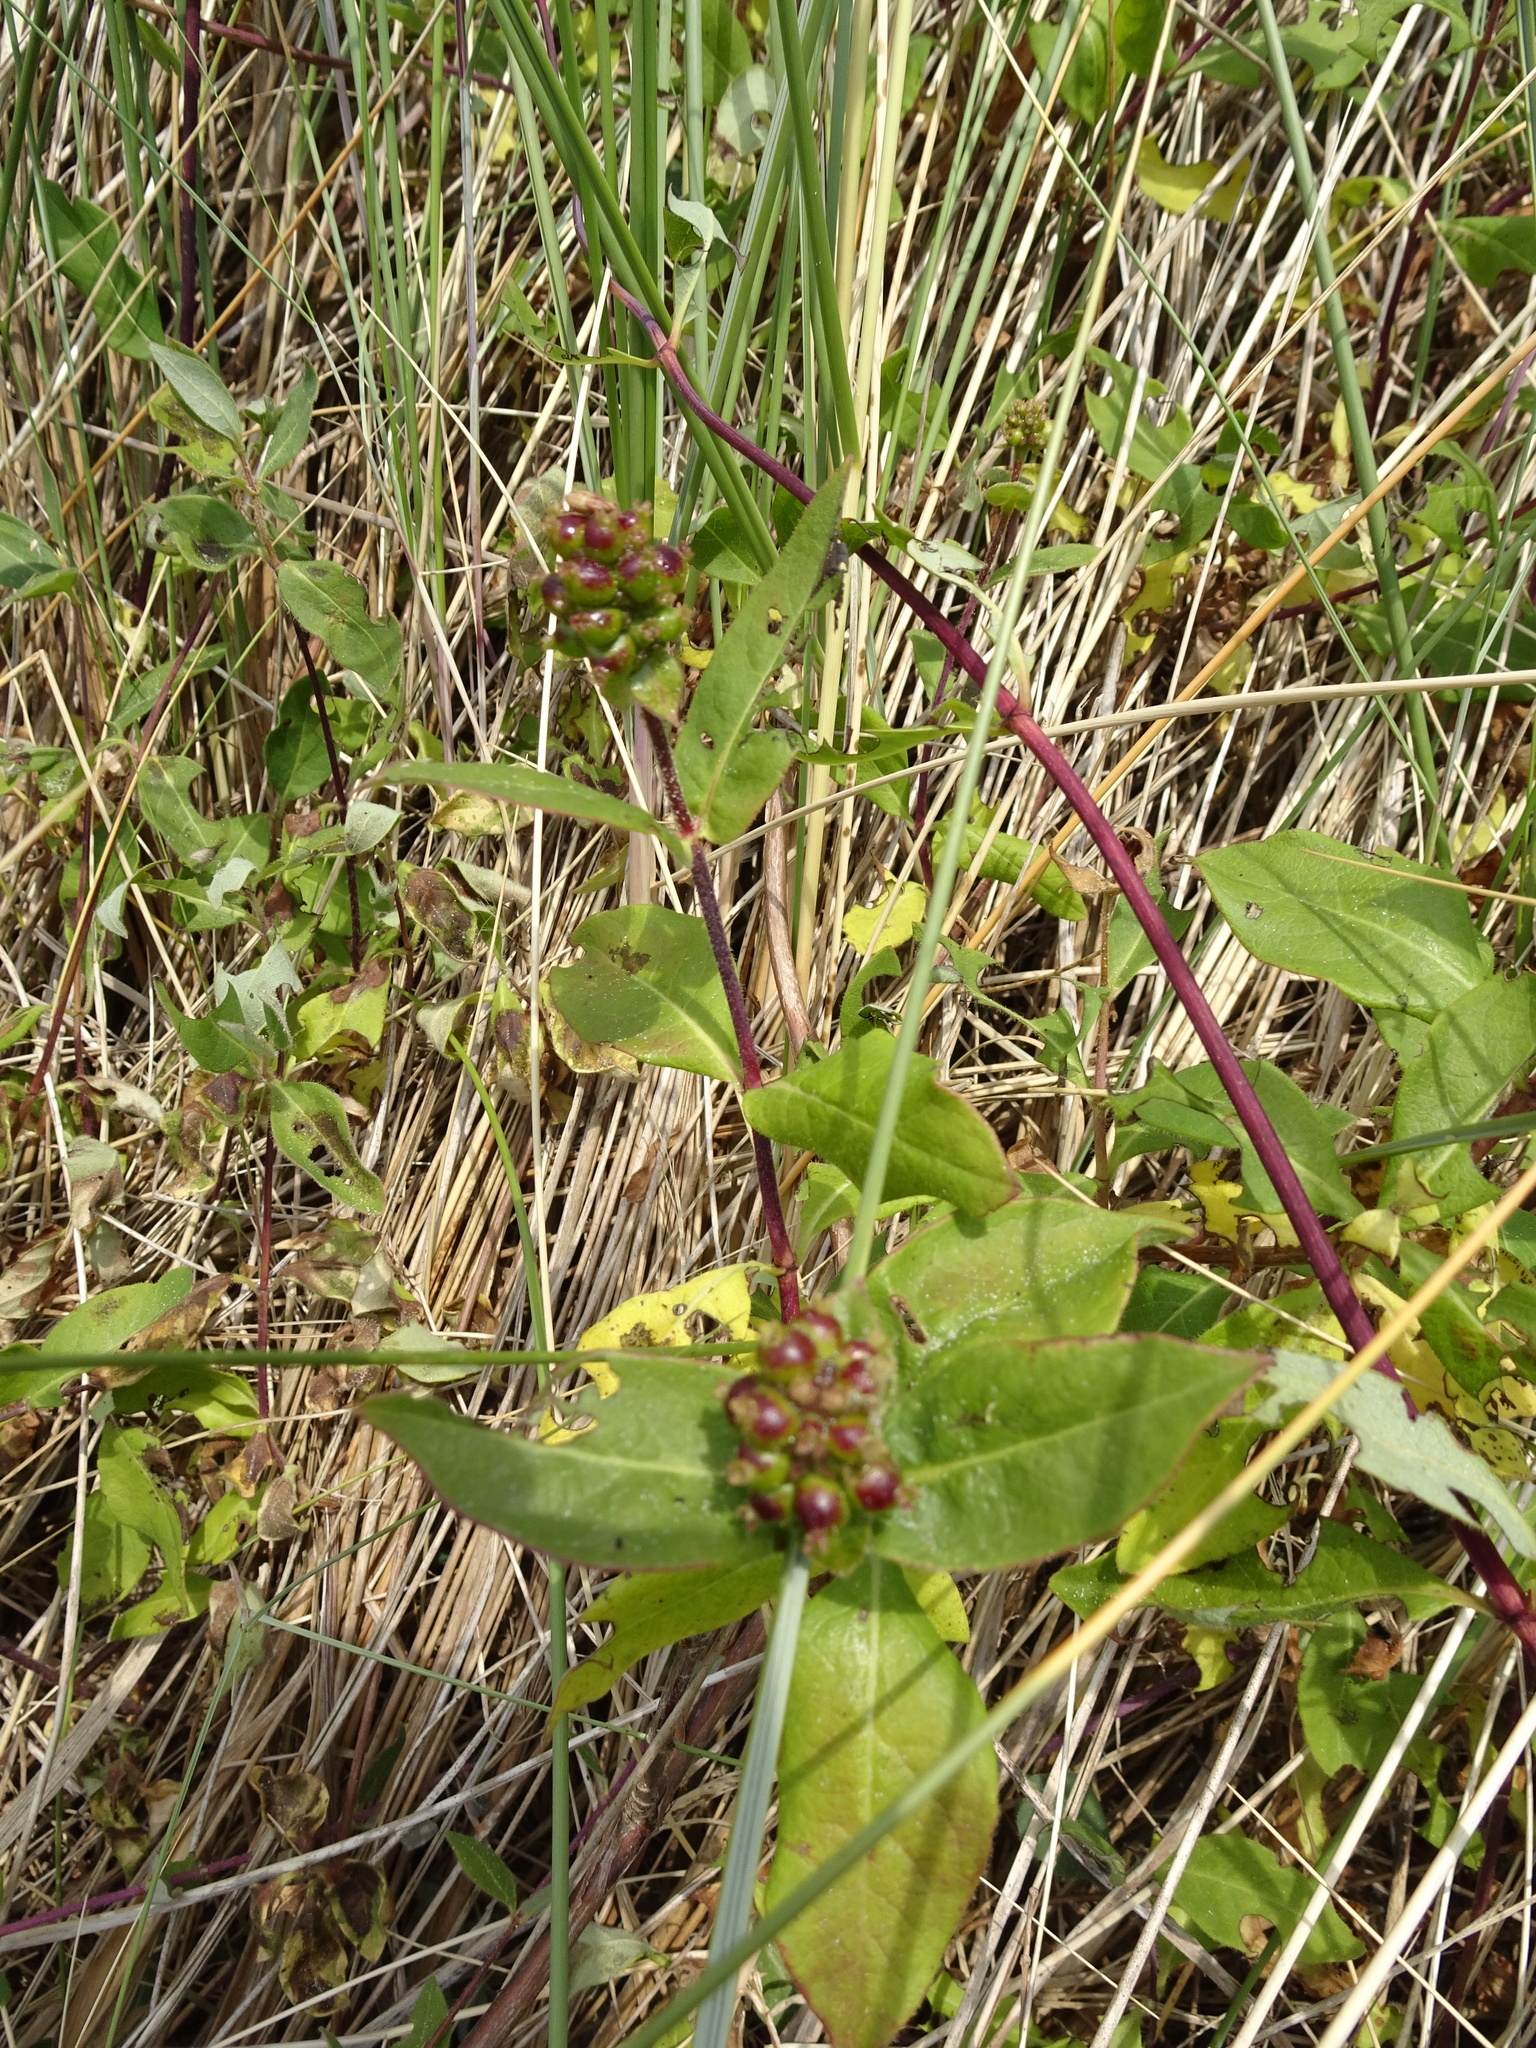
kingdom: Plantae
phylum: Tracheophyta
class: Magnoliopsida
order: Dipsacales
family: Caprifoliaceae
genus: Lonicera
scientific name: Lonicera periclymenum
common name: European honeysuckle
